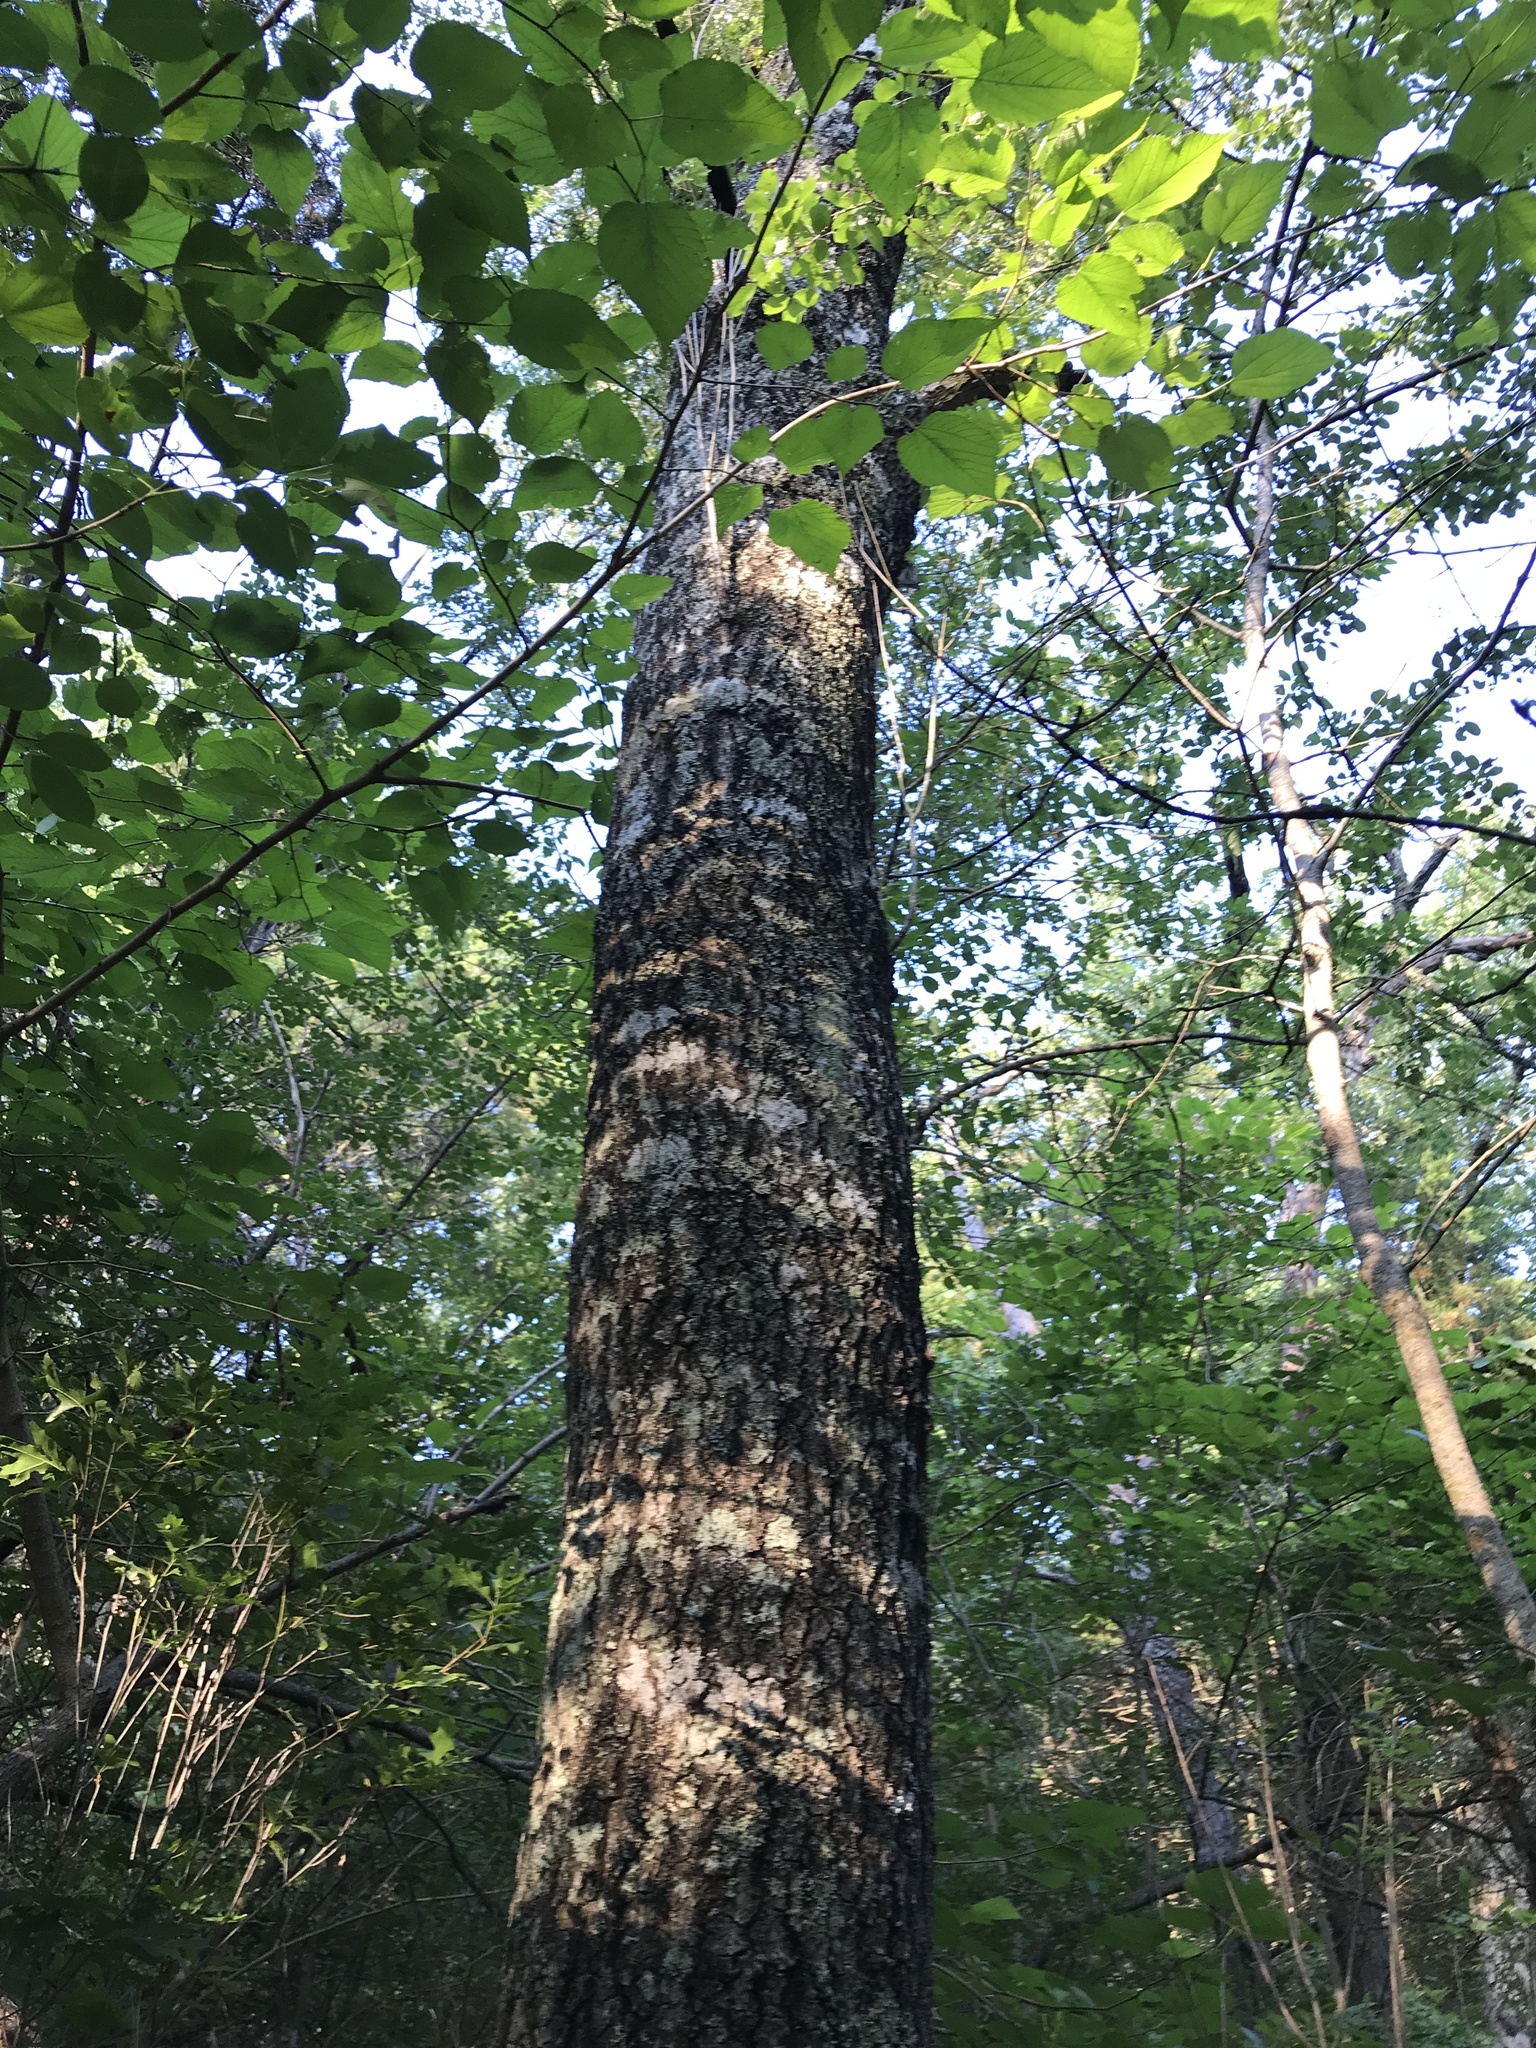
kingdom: Plantae
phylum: Tracheophyta
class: Magnoliopsida
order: Fagales
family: Fagaceae
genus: Quercus
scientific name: Quercus shumardii
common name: Shumard oak
